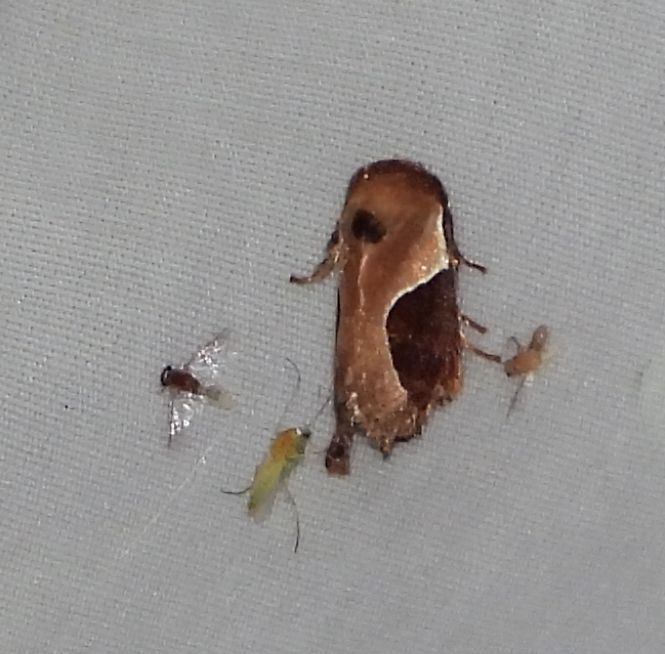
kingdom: Animalia
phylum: Arthropoda
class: Insecta
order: Lepidoptera
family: Limacodidae
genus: Prolimacodes
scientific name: Prolimacodes badia
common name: Skiff moth
